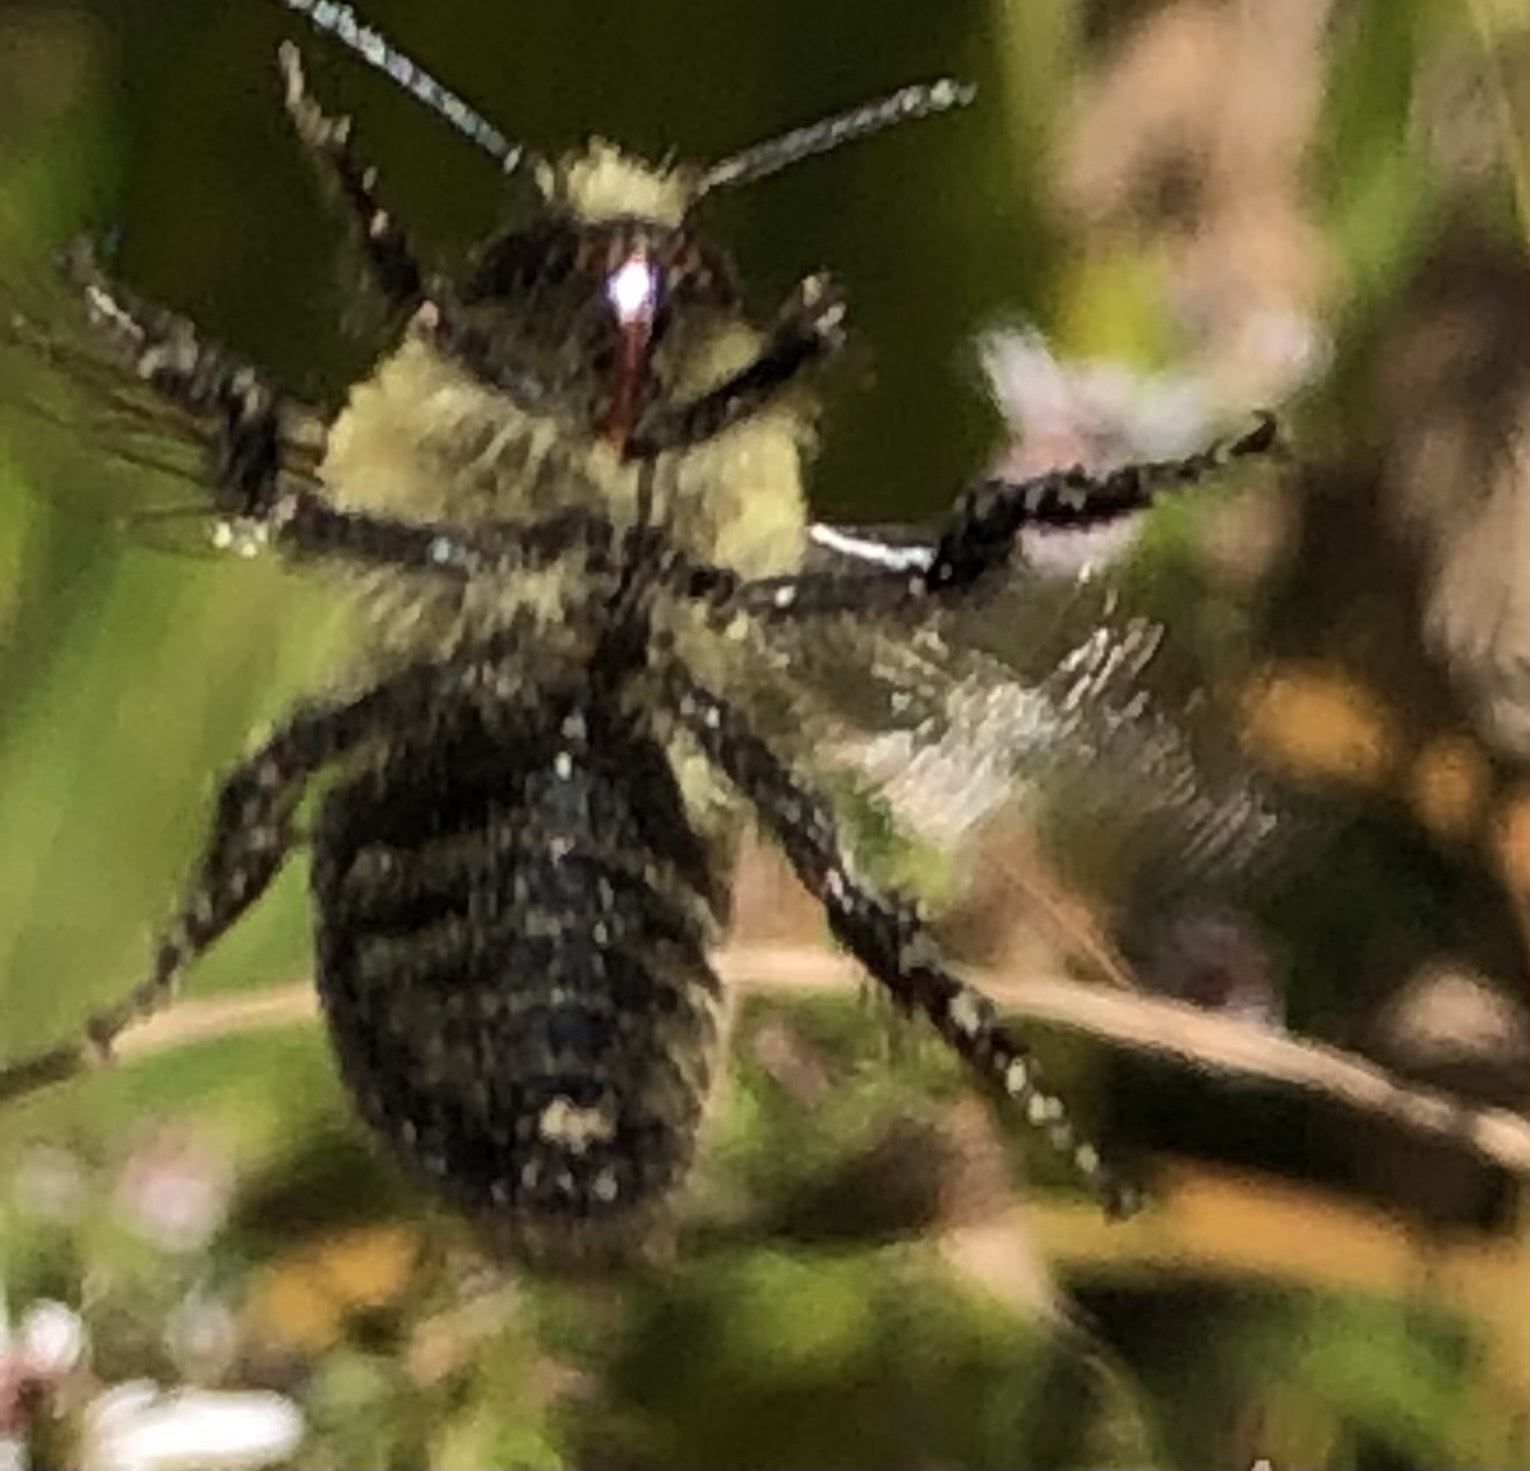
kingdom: Animalia
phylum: Arthropoda
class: Insecta
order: Hymenoptera
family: Apidae
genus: Bombus
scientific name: Bombus impatiens
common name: Common eastern bumble bee
